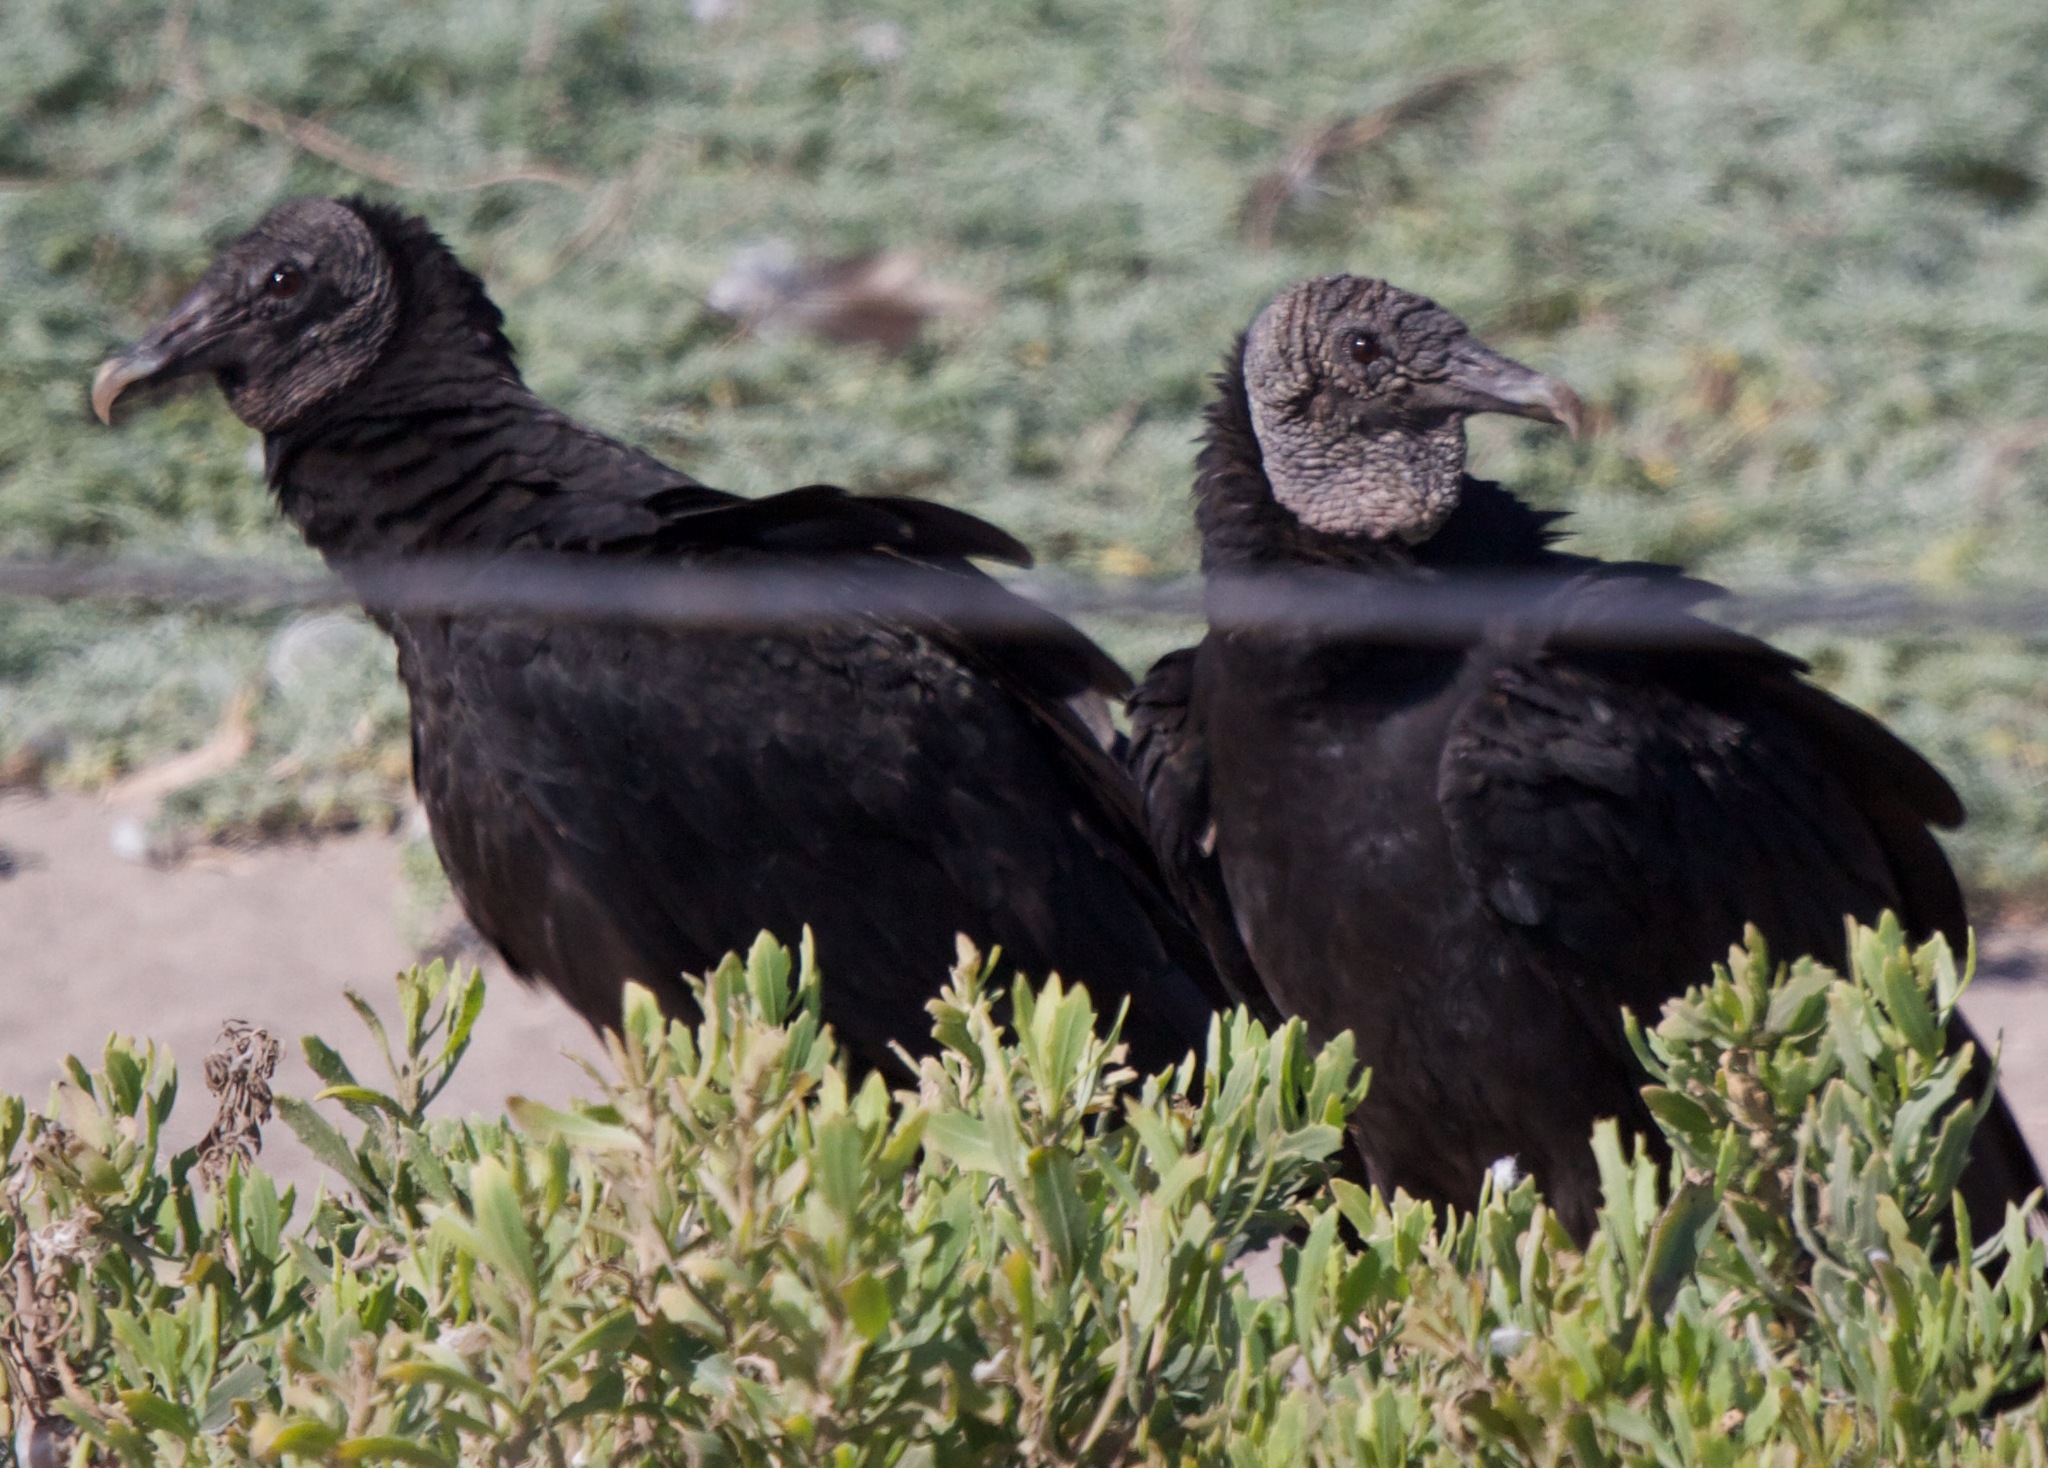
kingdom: Animalia
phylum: Chordata
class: Aves
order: Accipitriformes
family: Cathartidae
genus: Coragyps
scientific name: Coragyps atratus
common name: Black vulture
